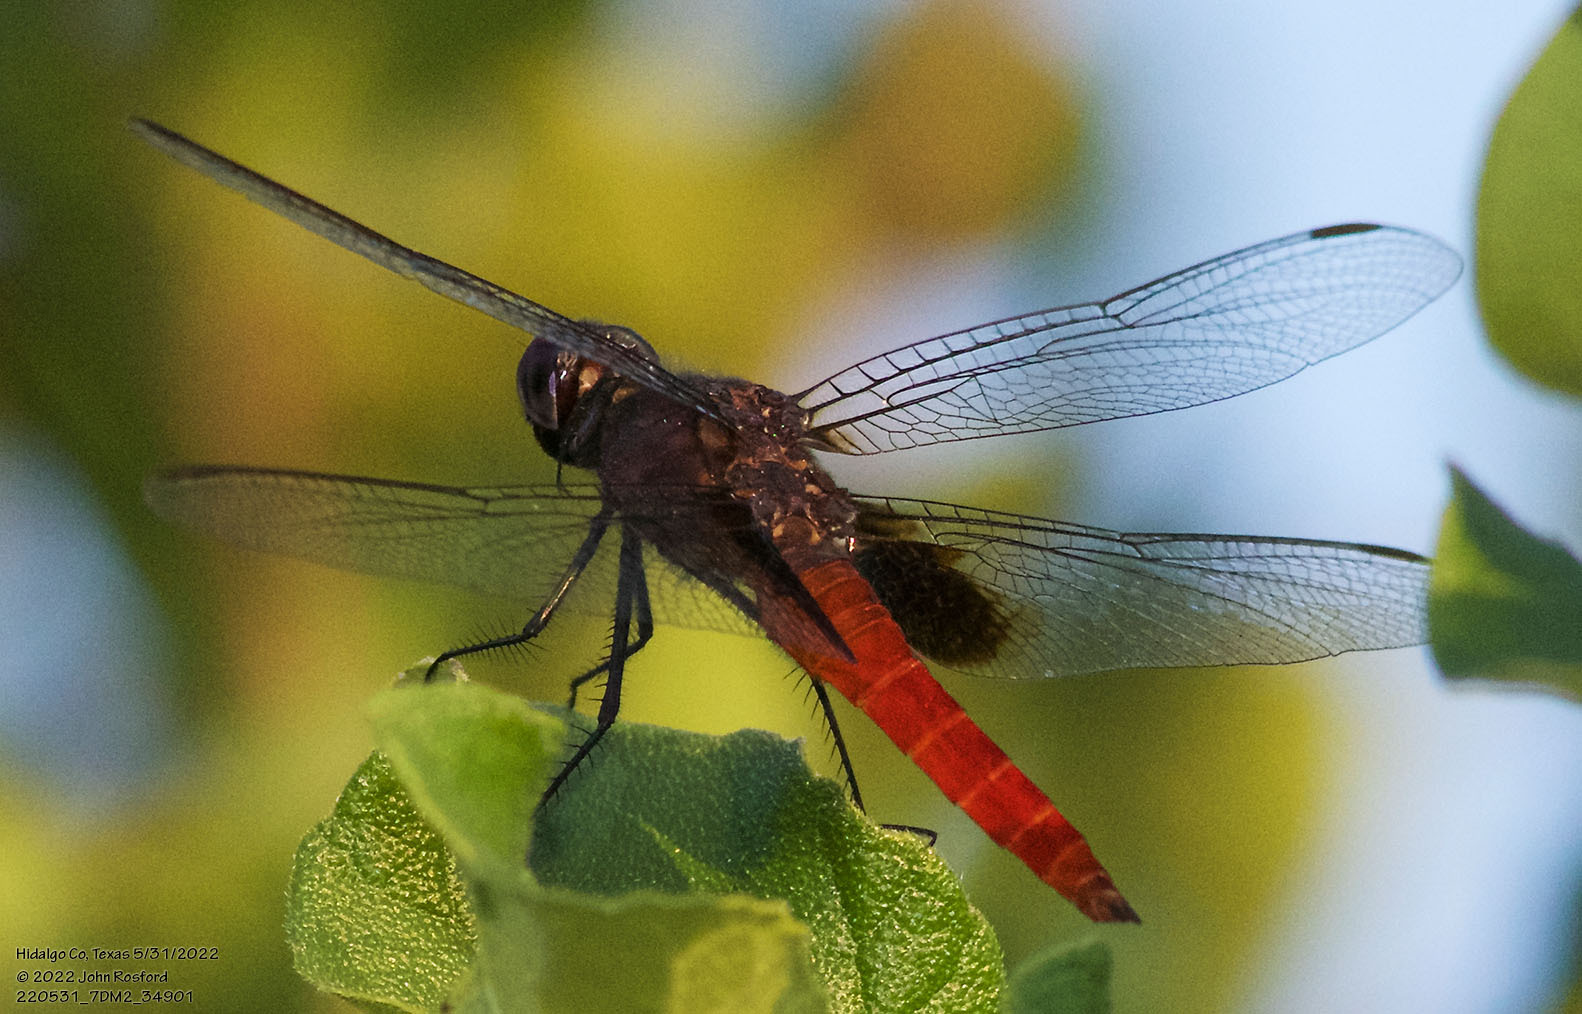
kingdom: Animalia
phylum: Arthropoda
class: Insecta
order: Odonata
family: Libellulidae
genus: Planiplax
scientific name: Planiplax sanguiniventris
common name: Mexican scarlet-tail
